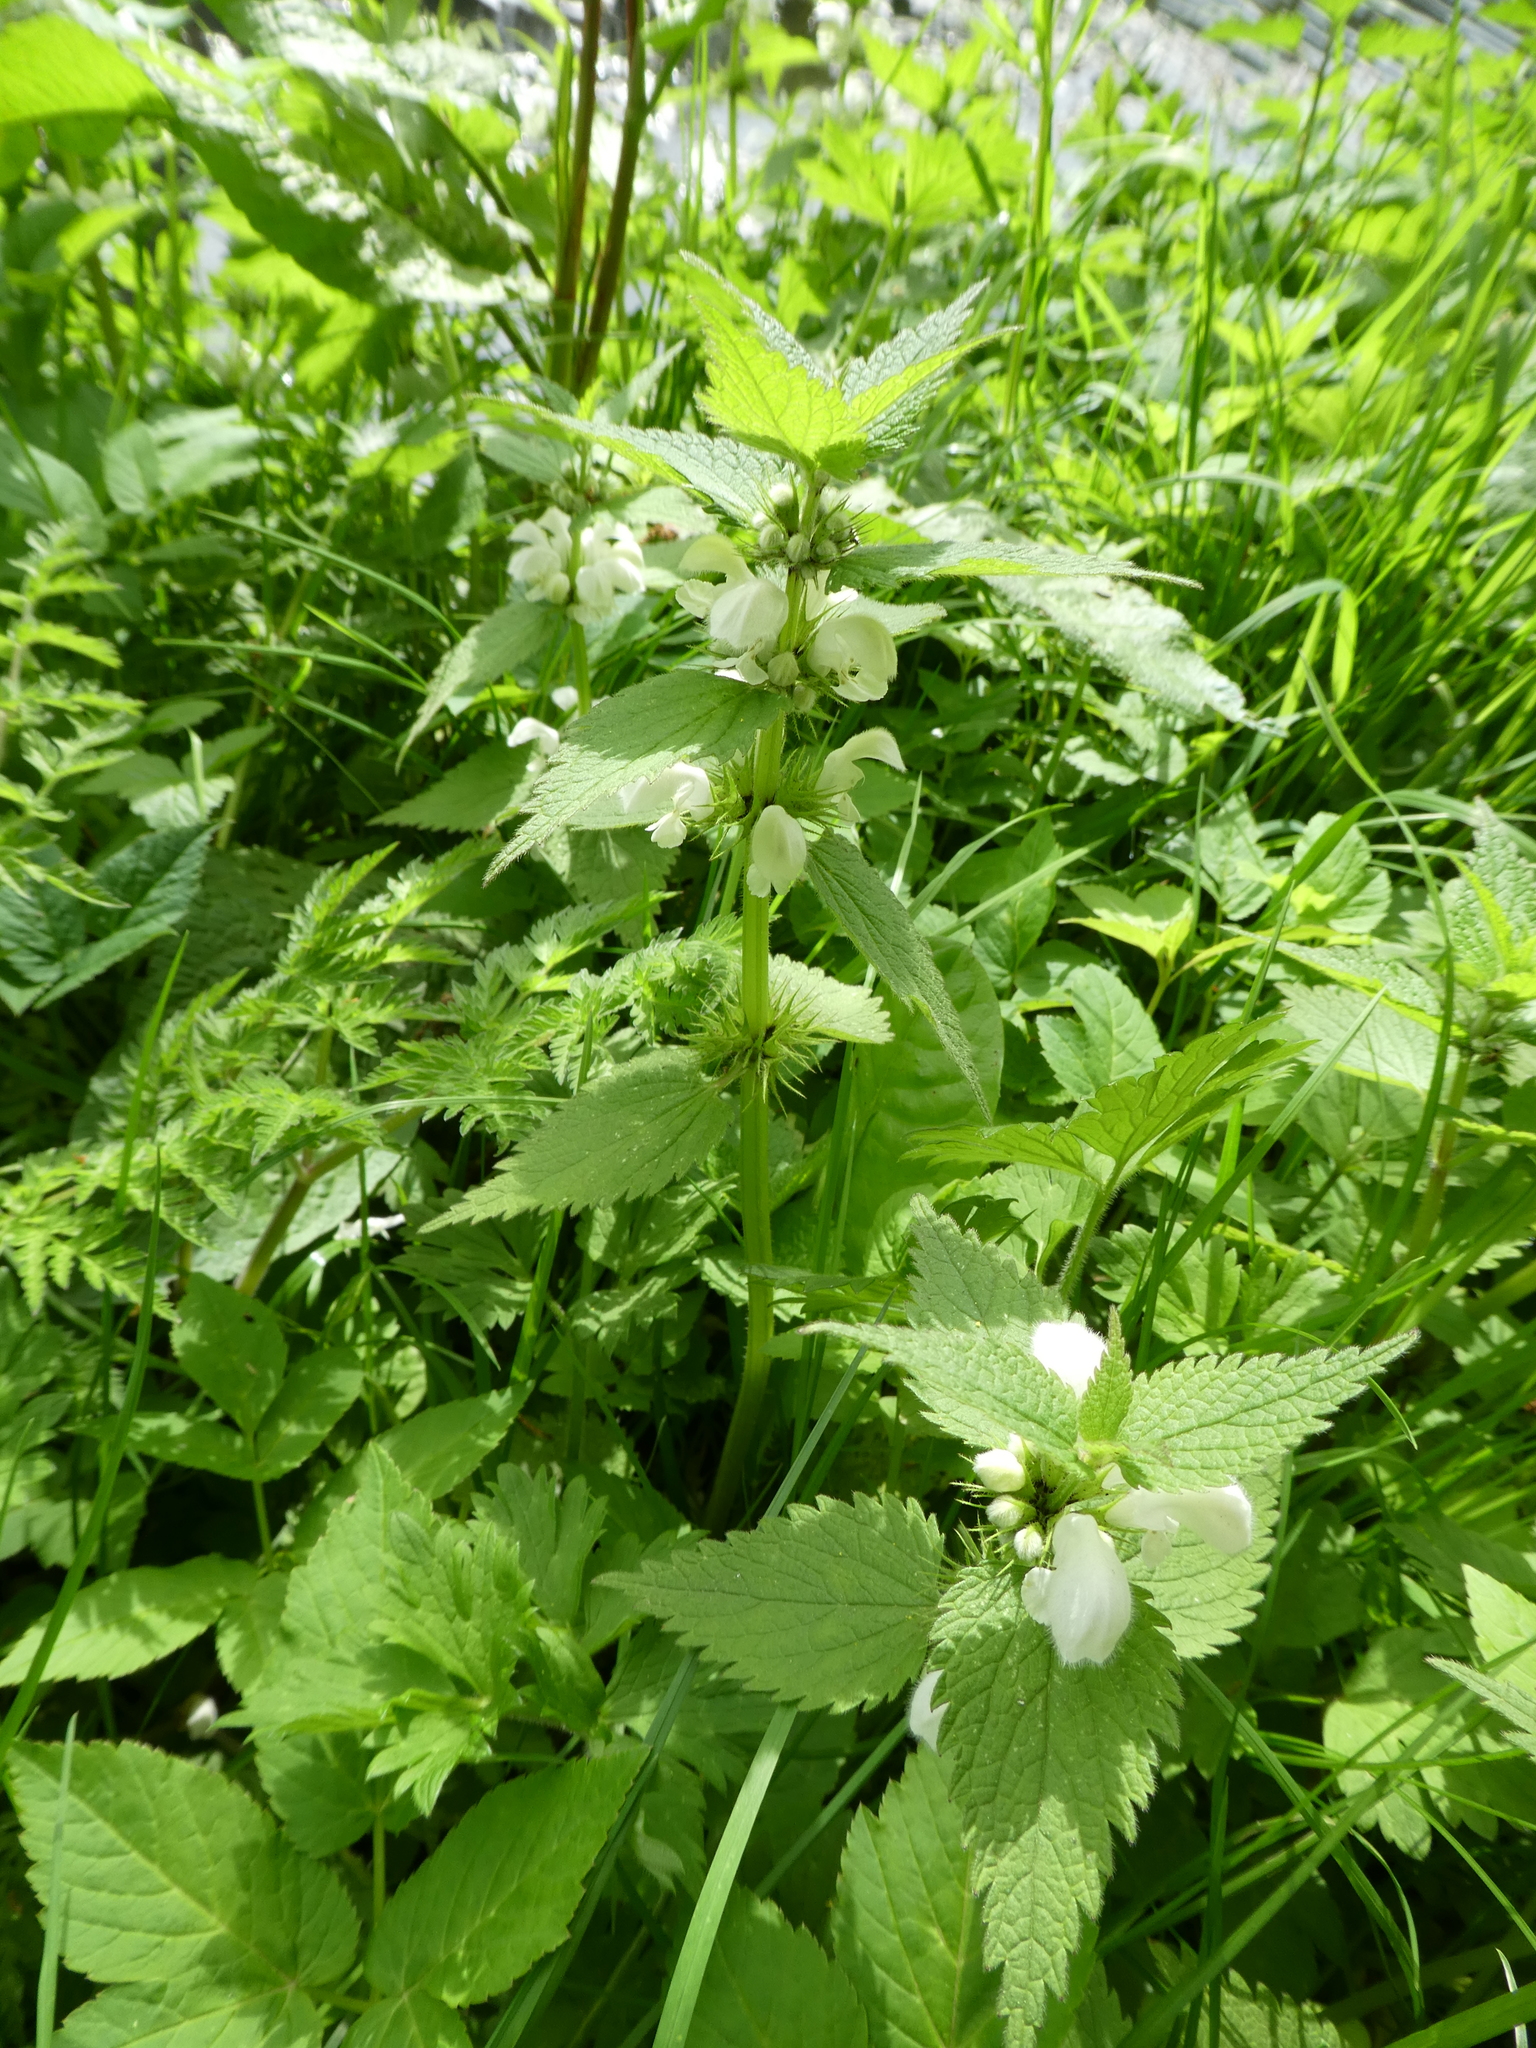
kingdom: Plantae
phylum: Tracheophyta
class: Magnoliopsida
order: Lamiales
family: Lamiaceae
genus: Lamium
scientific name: Lamium album
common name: White dead-nettle
